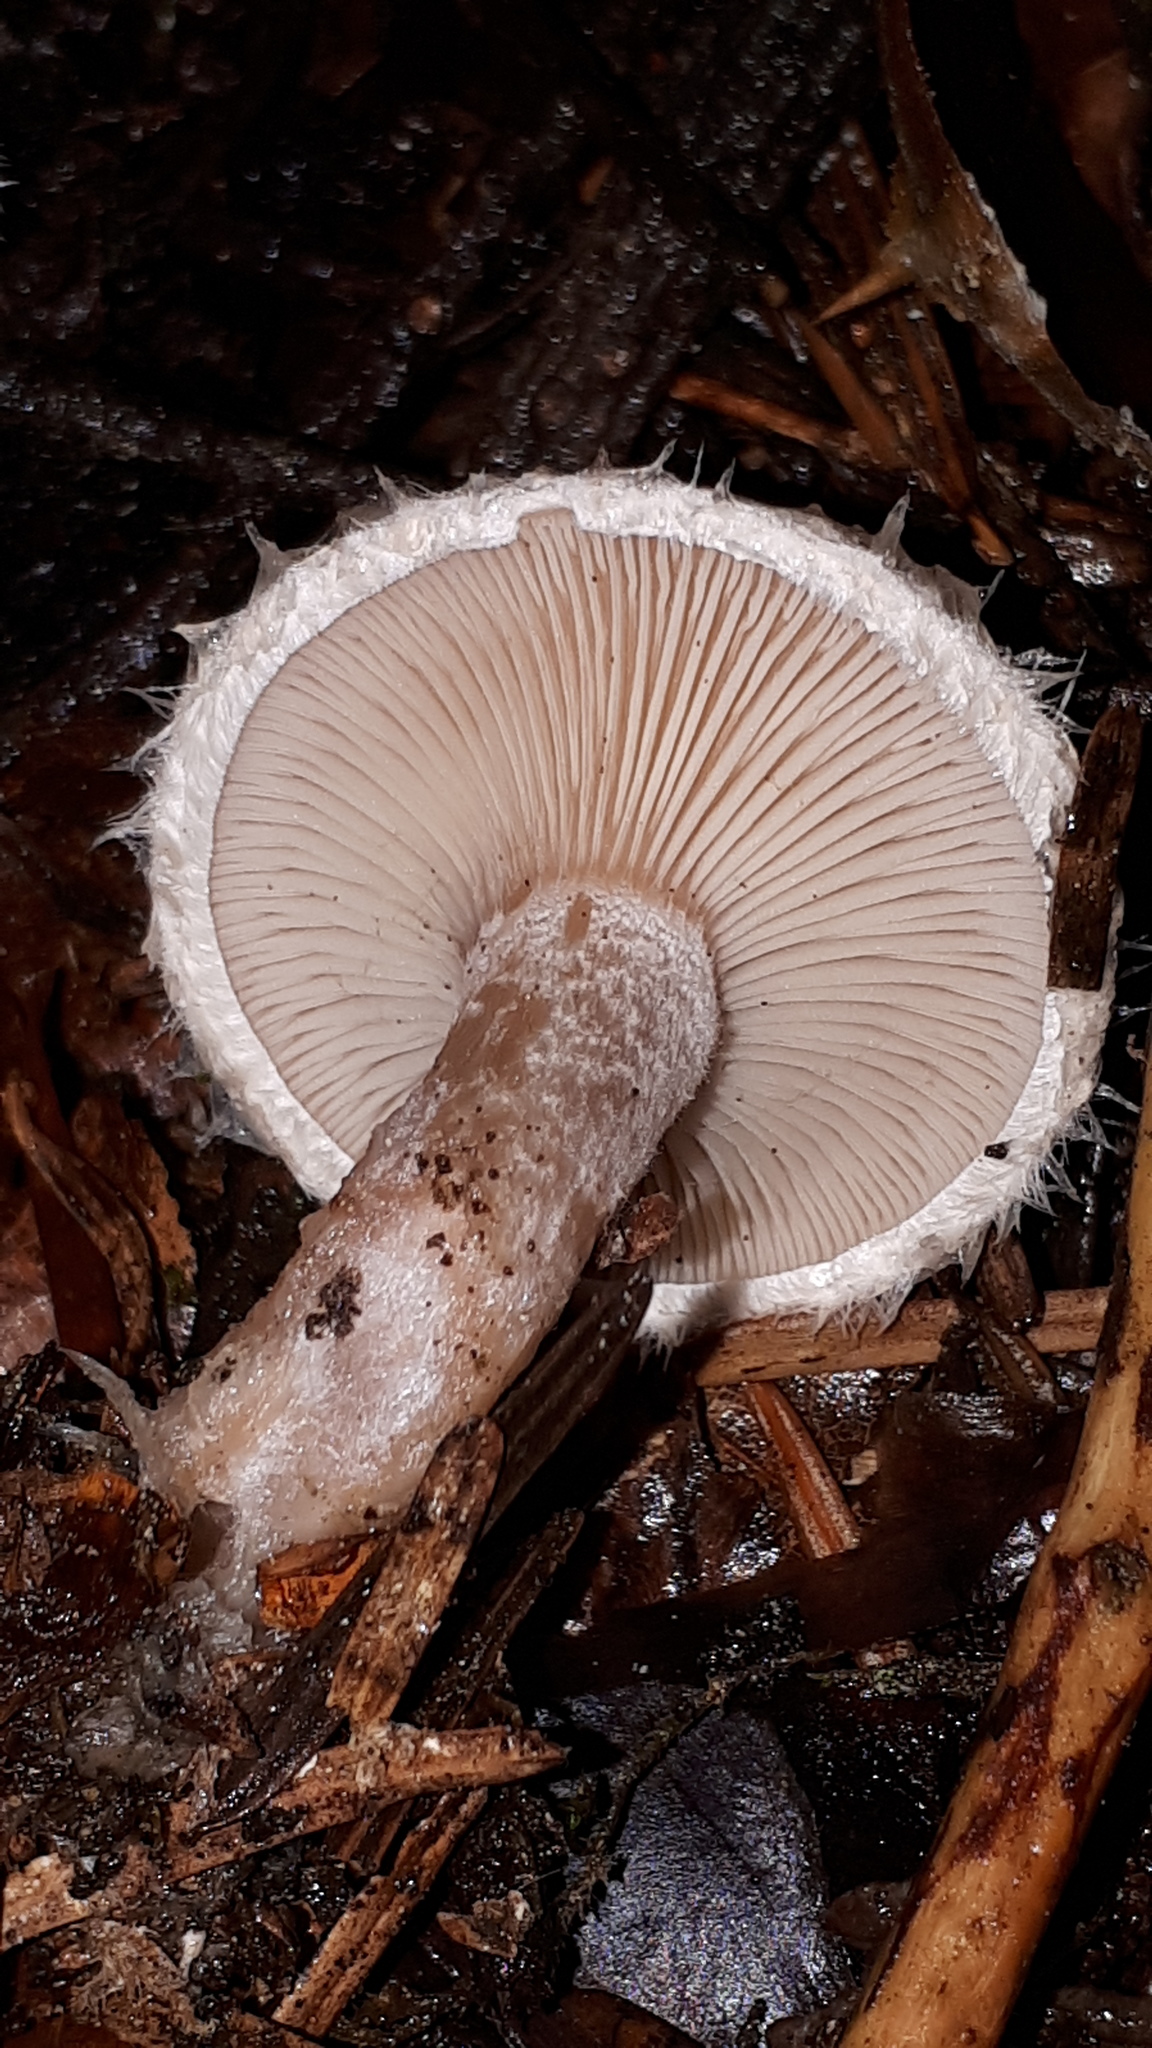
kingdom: Fungi
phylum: Basidiomycota
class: Agaricomycetes
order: Agaricales
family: Tricholomataceae
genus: Ripartites
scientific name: Ripartites tricholoma
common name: Bearded seamine
